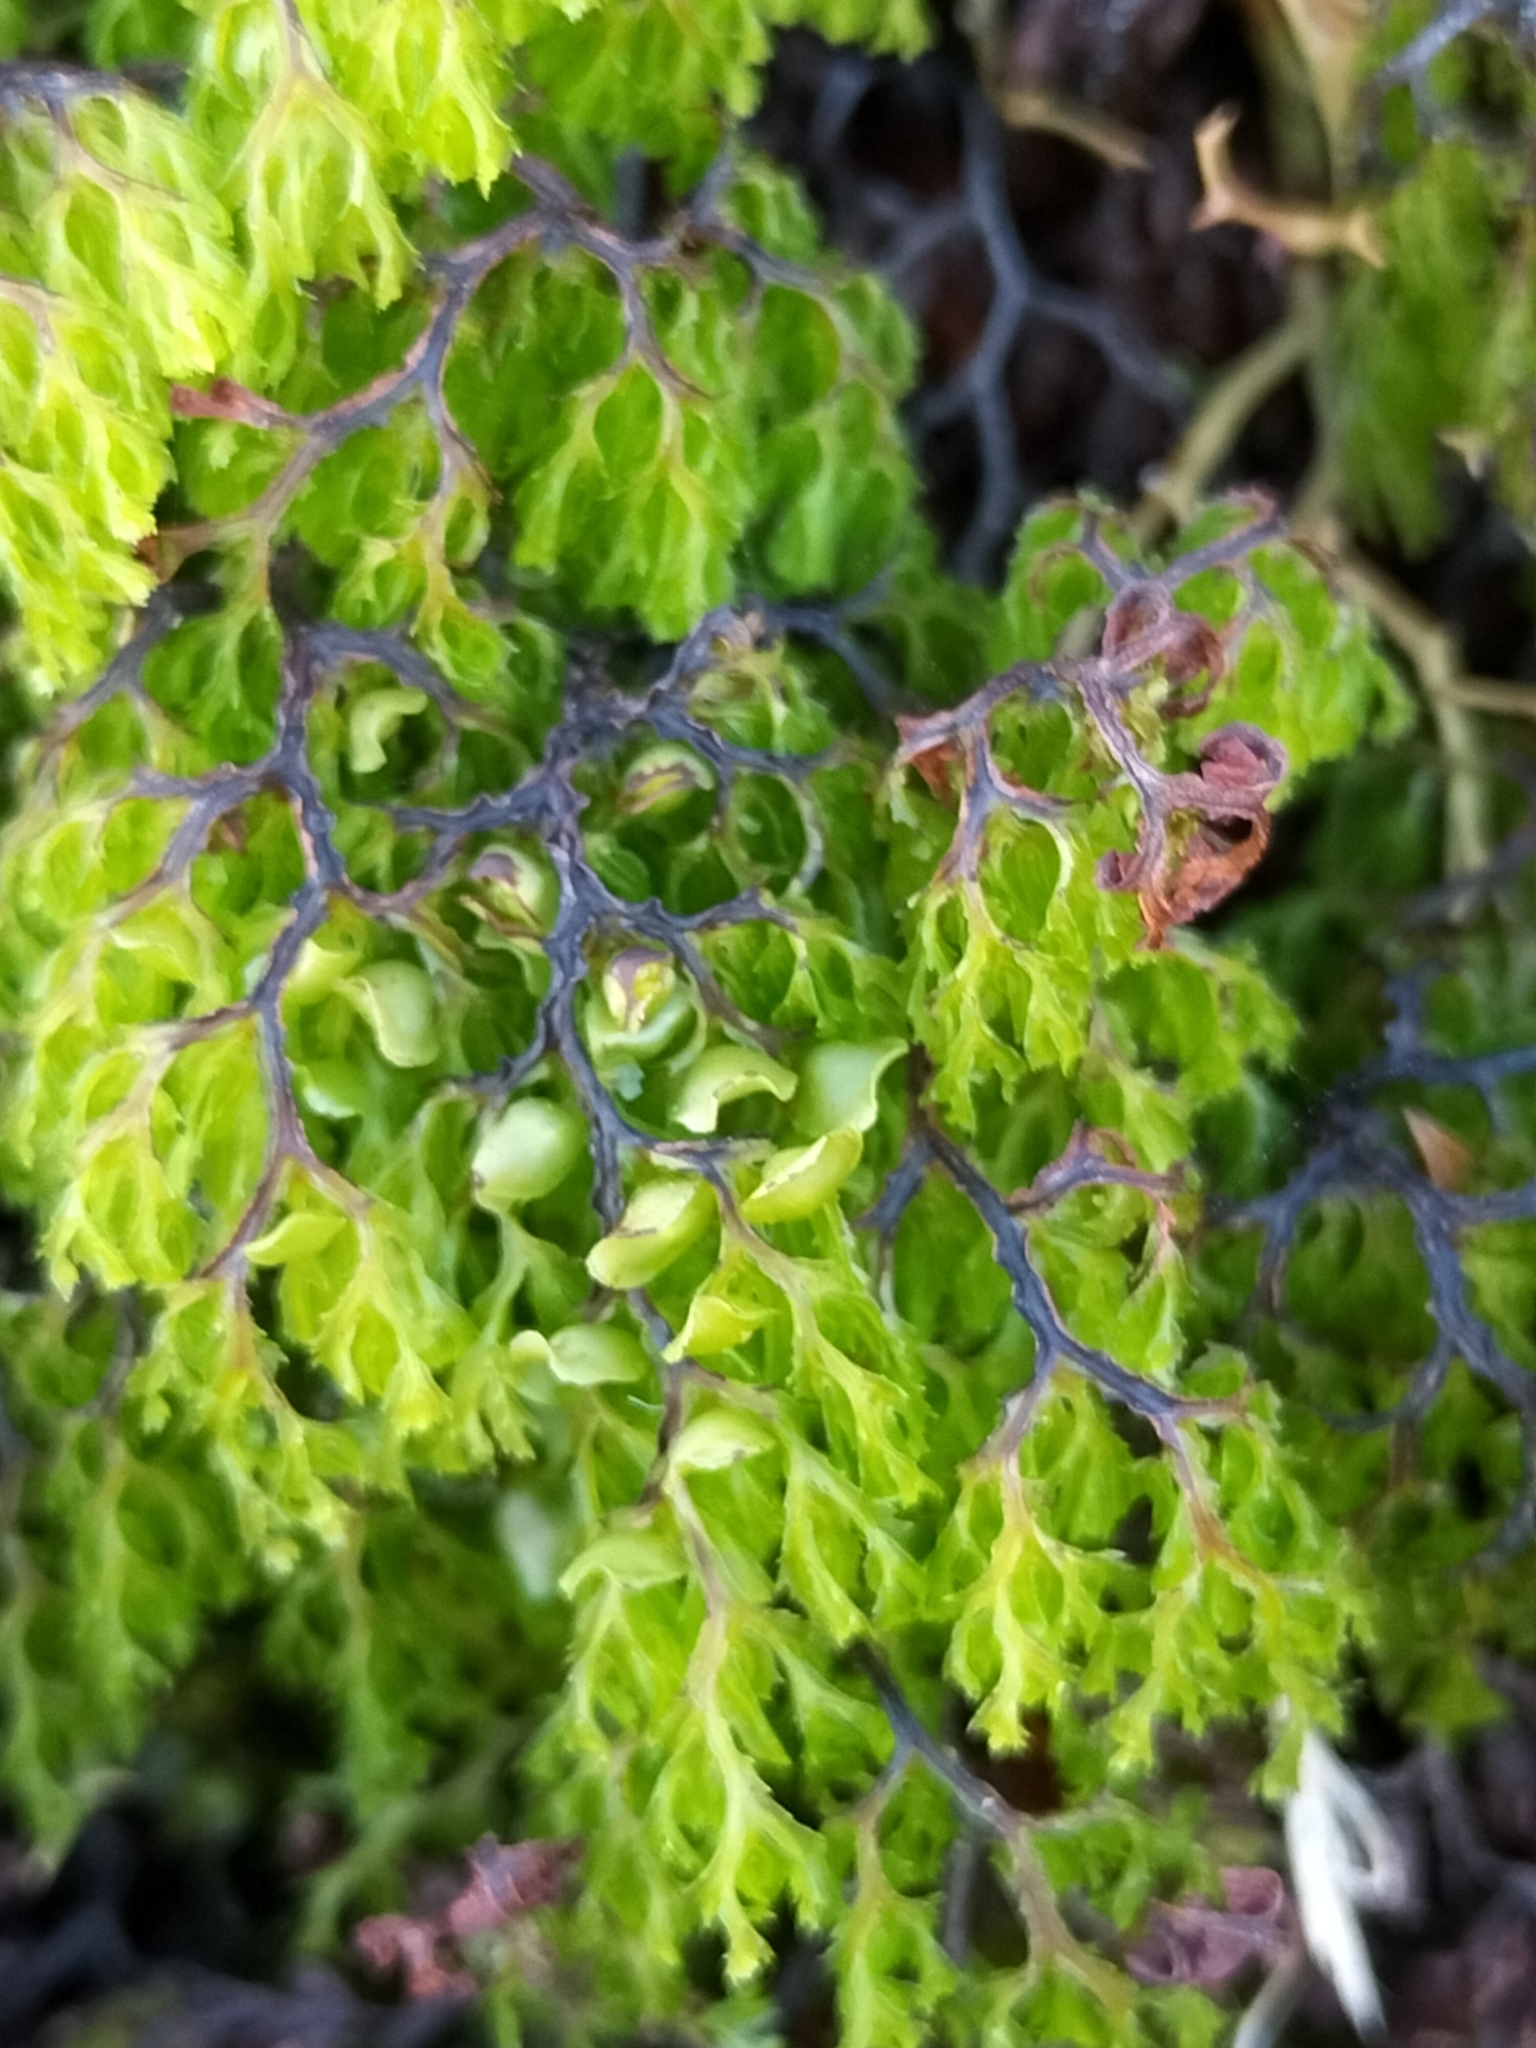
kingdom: Plantae
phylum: Tracheophyta
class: Polypodiopsida
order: Hymenophyllales
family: Hymenophyllaceae
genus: Hymenophyllum
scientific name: Hymenophyllum multifidum
